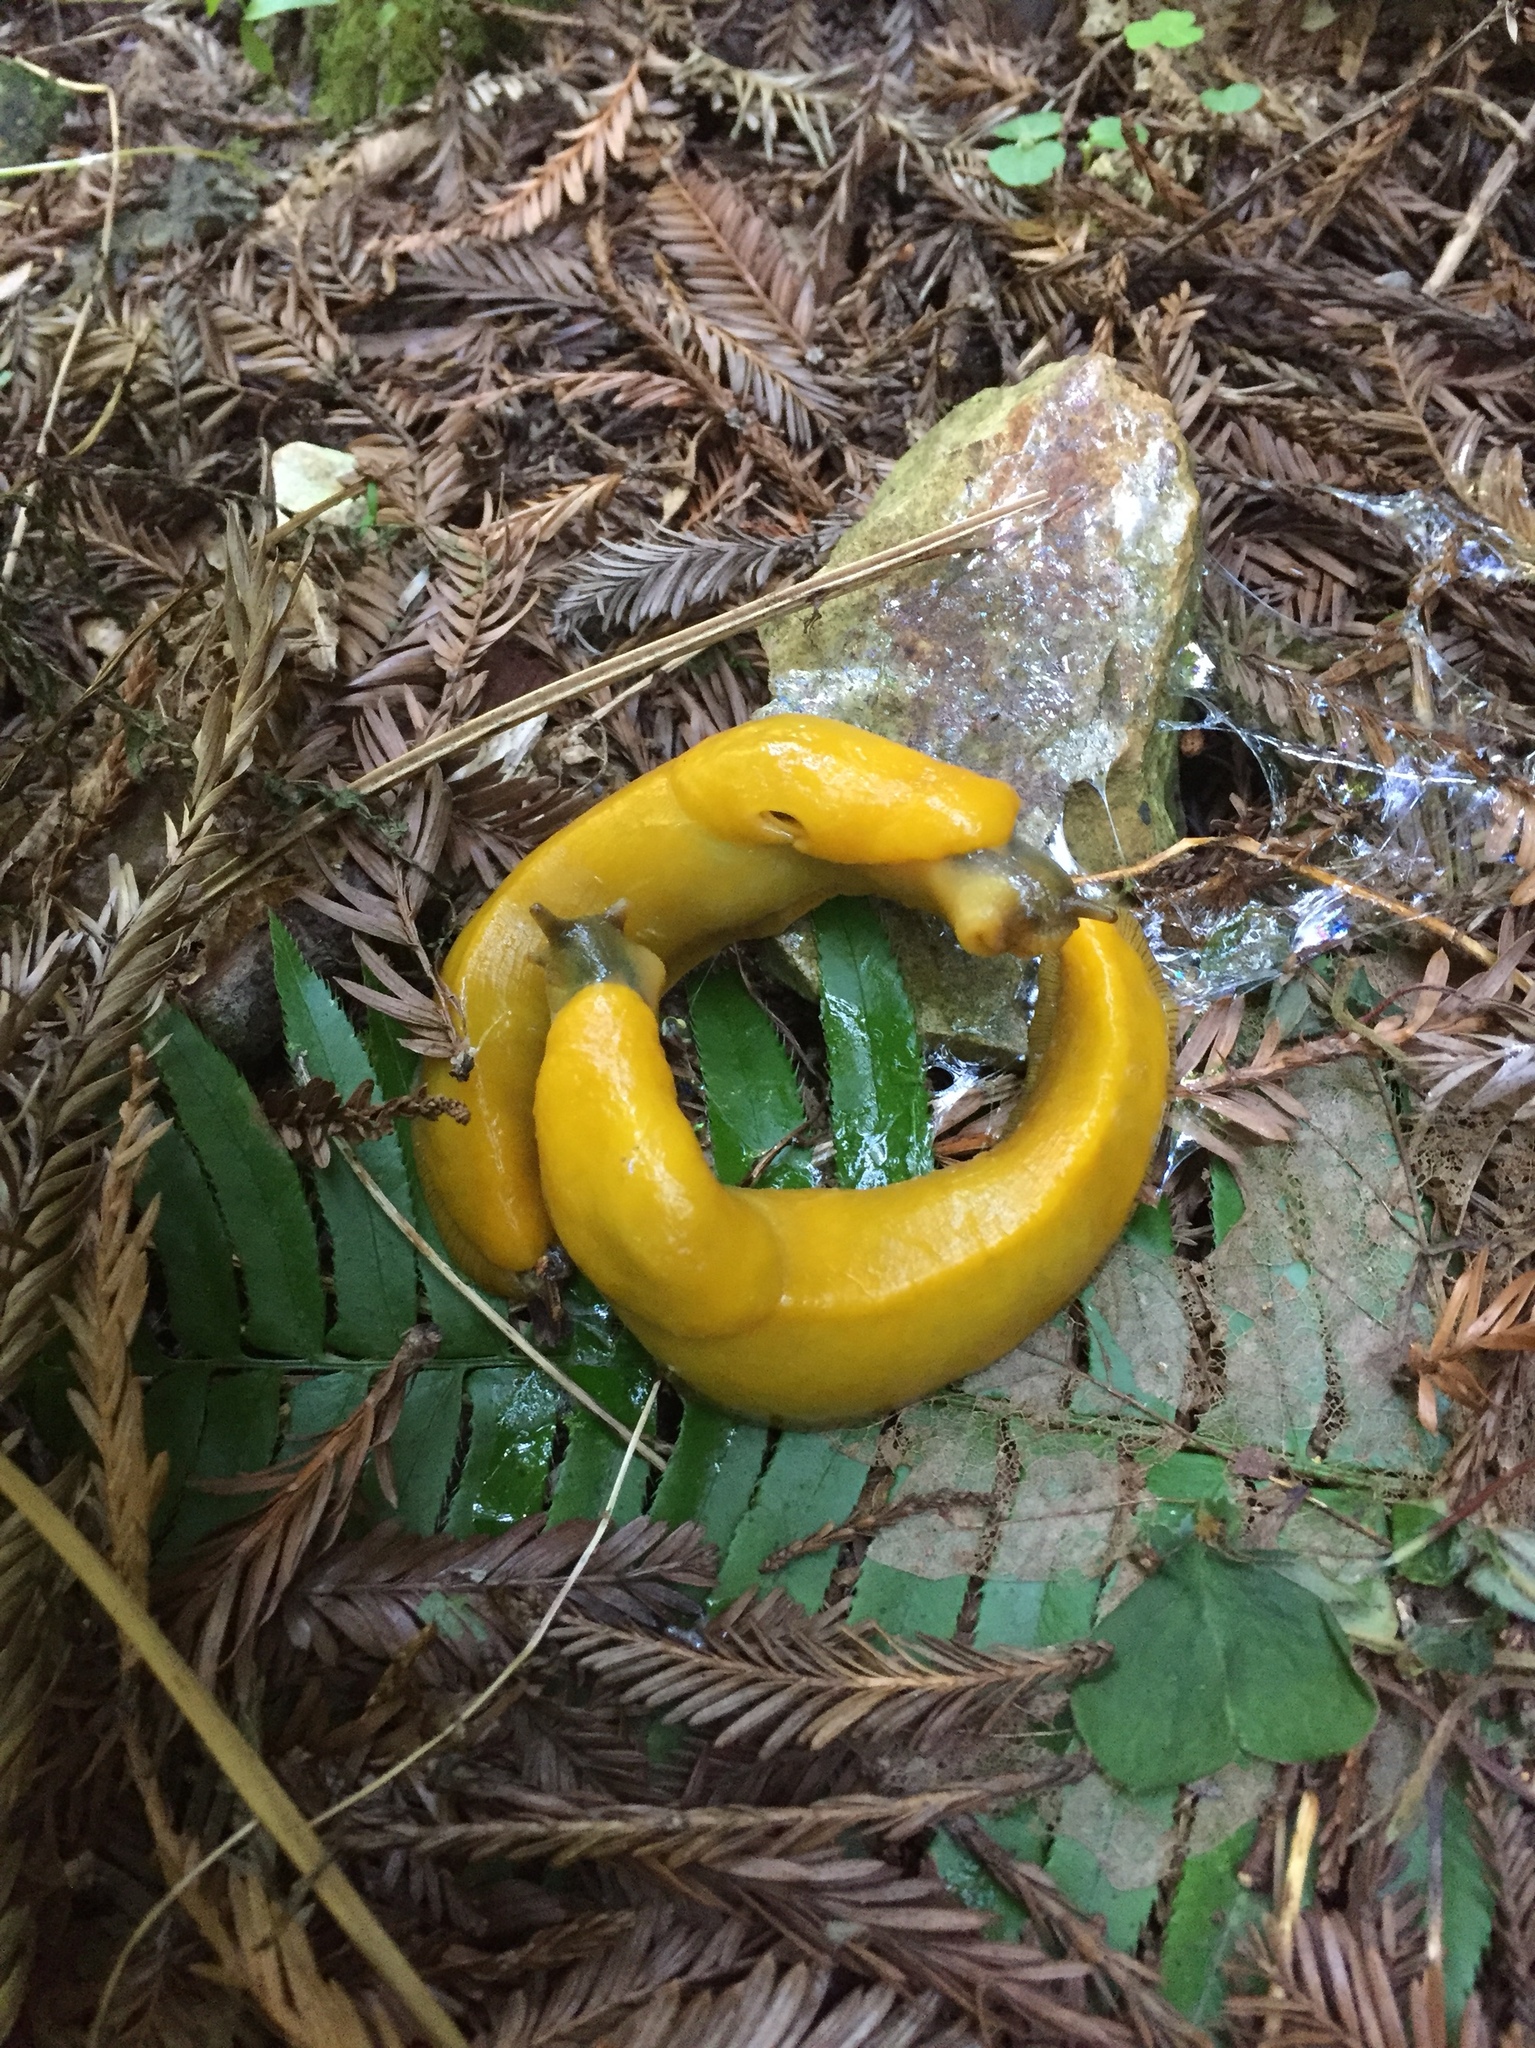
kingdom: Animalia
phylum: Mollusca
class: Gastropoda
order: Stylommatophora
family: Ariolimacidae
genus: Ariolimax
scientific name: Ariolimax californicus
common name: California banana slug
